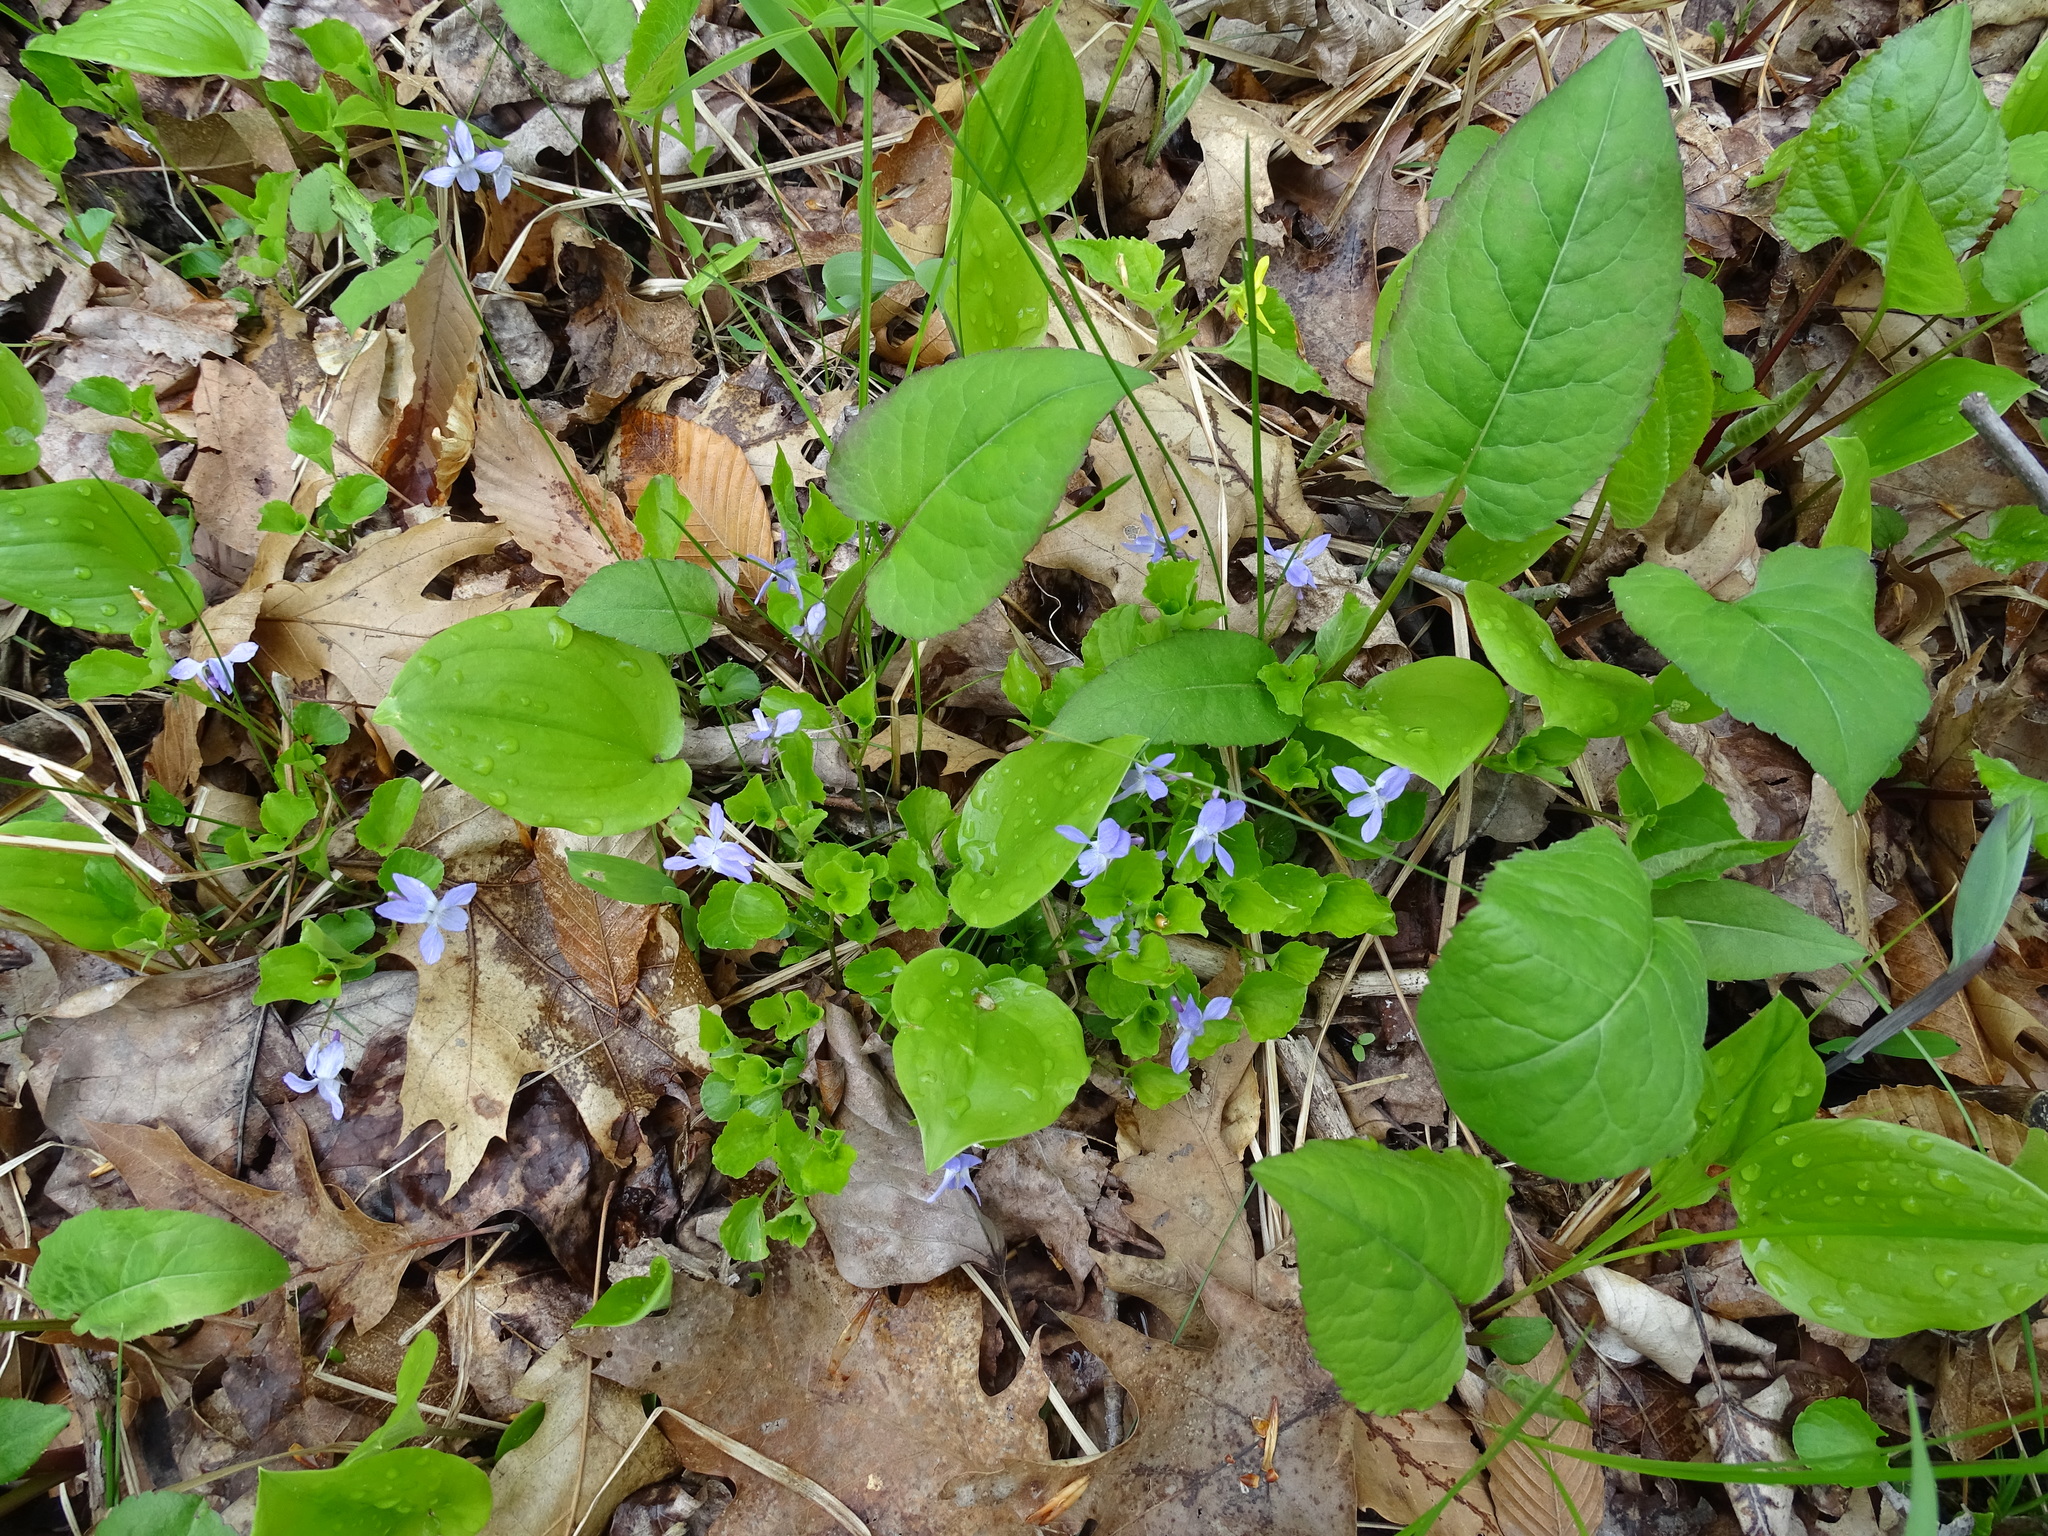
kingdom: Plantae
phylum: Tracheophyta
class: Magnoliopsida
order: Malpighiales
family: Violaceae
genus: Viola
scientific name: Viola labradorica
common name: Labrador violet
